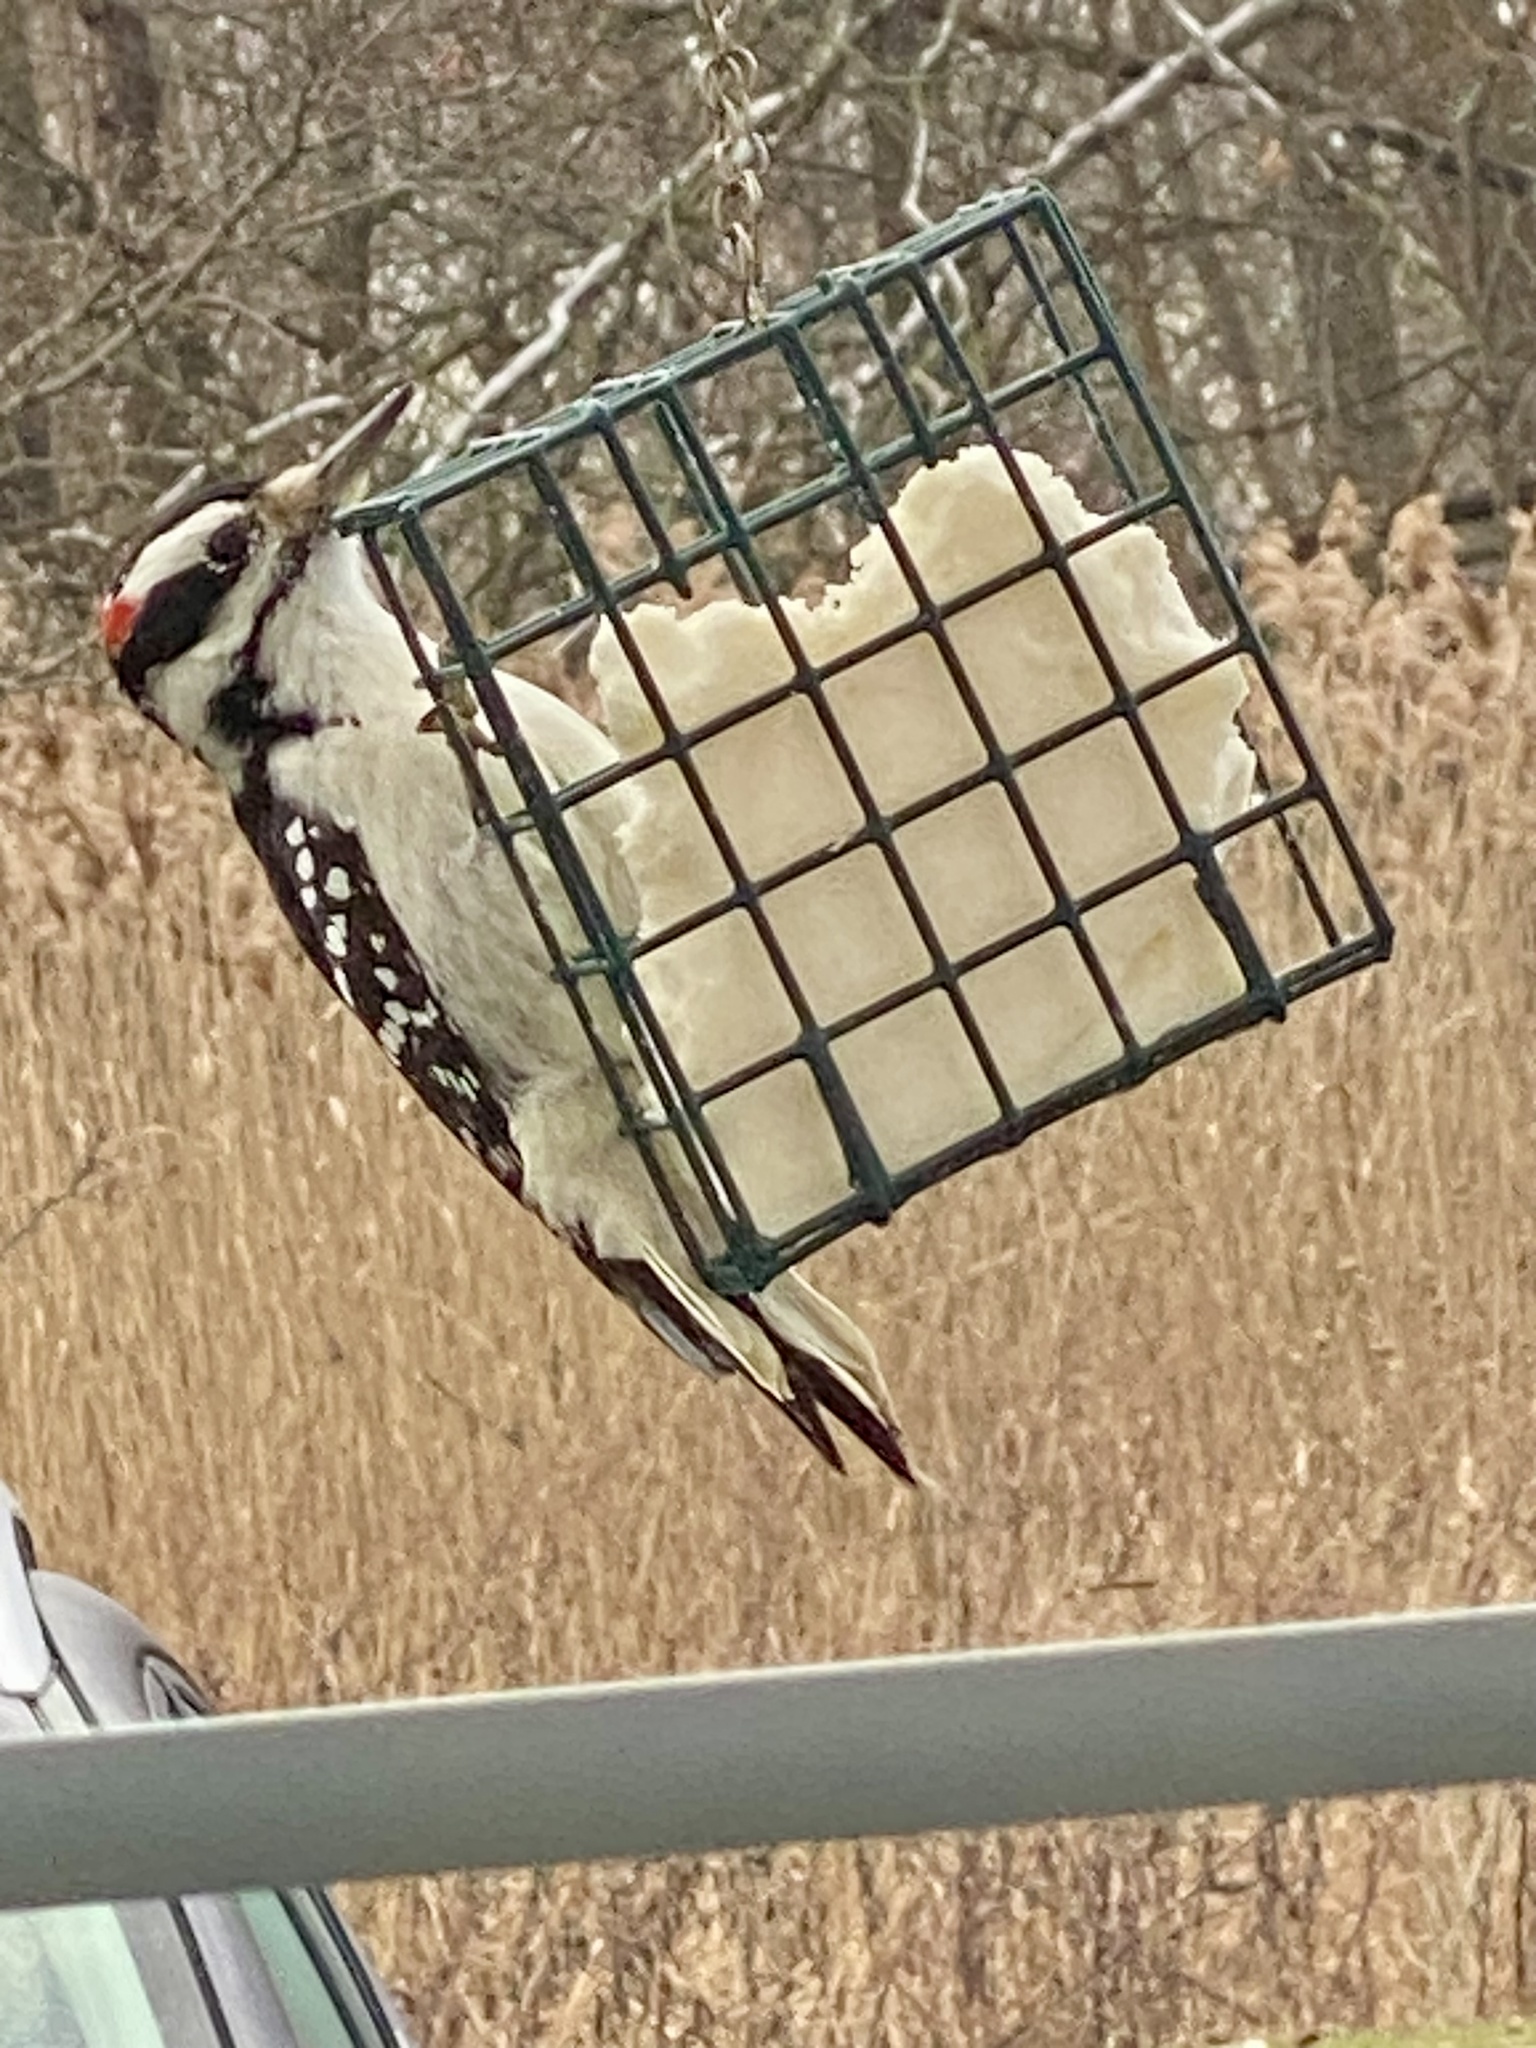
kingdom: Animalia
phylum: Chordata
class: Aves
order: Piciformes
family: Picidae
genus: Leuconotopicus
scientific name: Leuconotopicus villosus
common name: Hairy woodpecker
